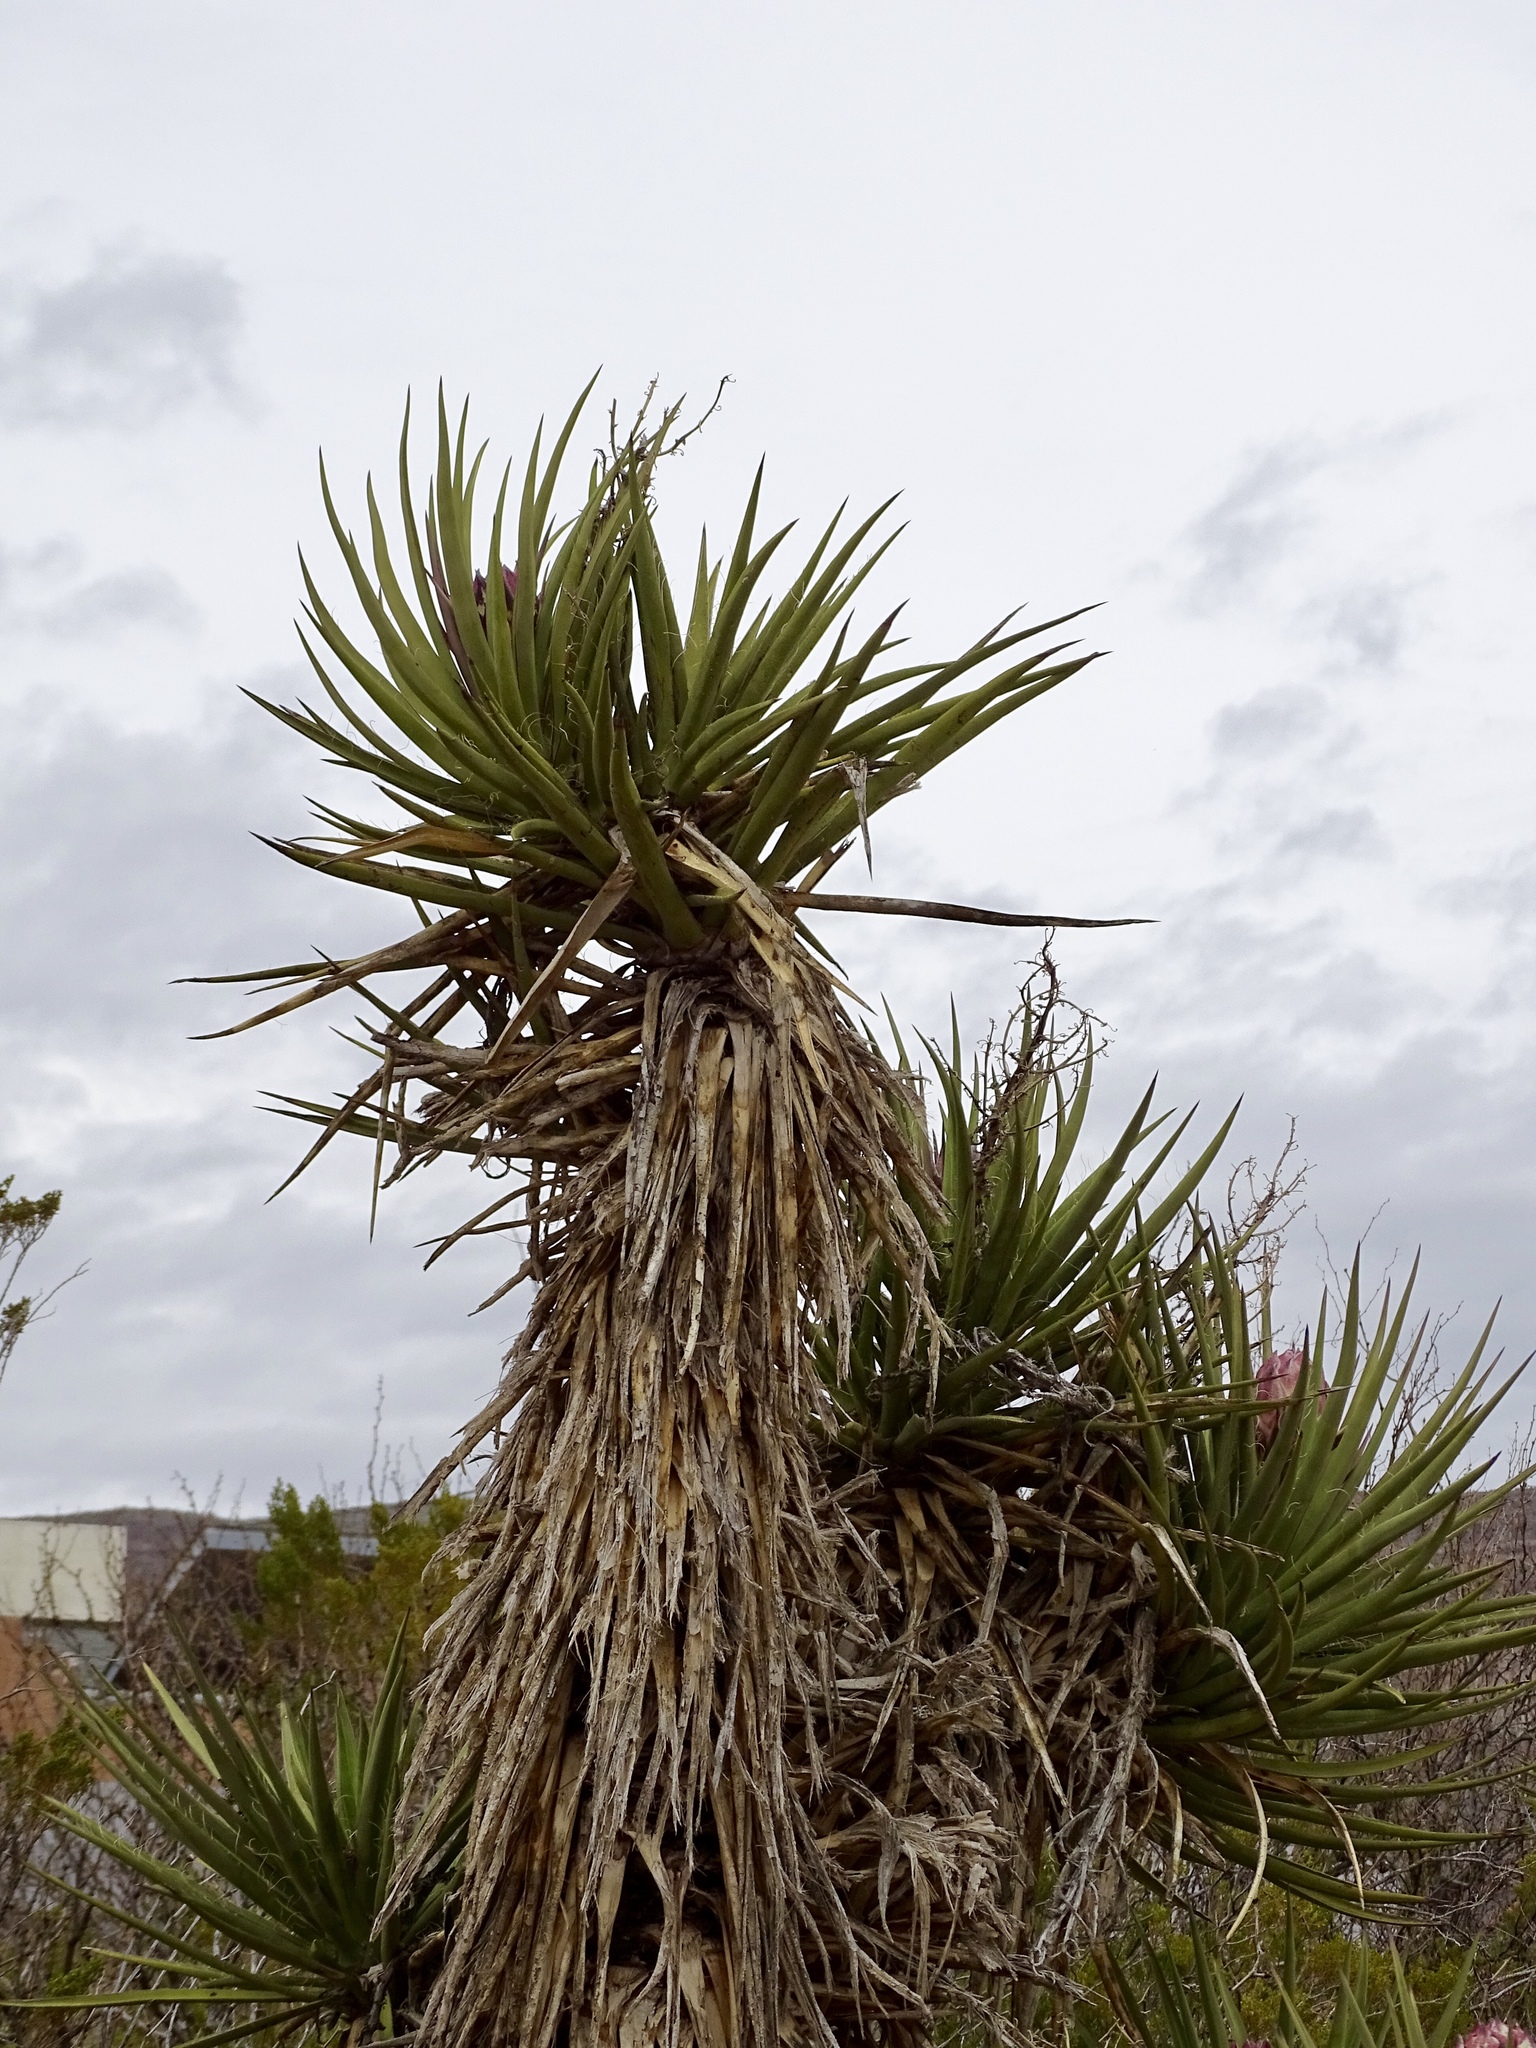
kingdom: Plantae
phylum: Tracheophyta
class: Liliopsida
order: Asparagales
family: Asparagaceae
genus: Yucca
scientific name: Yucca treculiana
